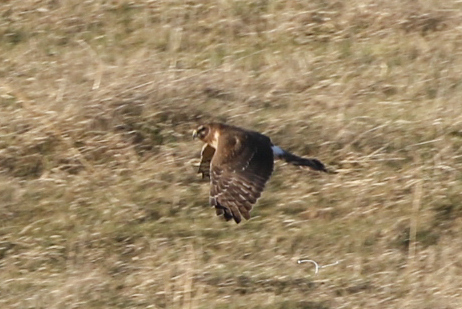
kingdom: Animalia
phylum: Chordata
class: Aves
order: Accipitriformes
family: Accipitridae
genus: Circus
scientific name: Circus cyaneus
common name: Hen harrier
